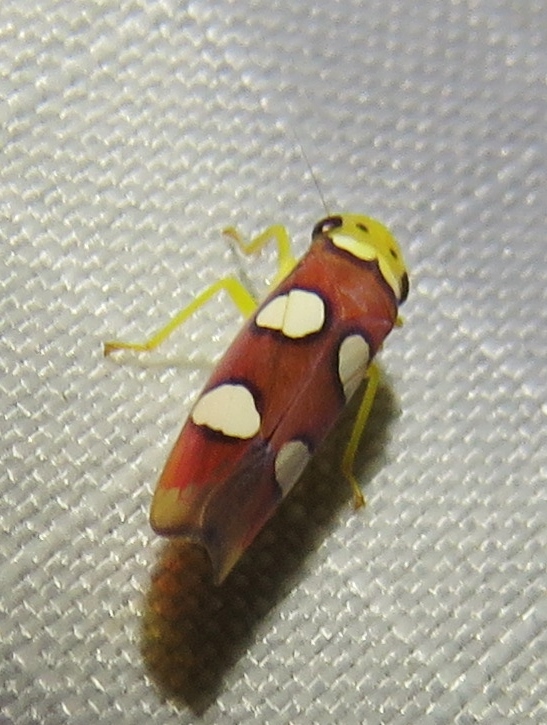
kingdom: Animalia
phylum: Arthropoda
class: Insecta
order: Hemiptera
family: Cicadellidae
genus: Erythrogonia
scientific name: Erythrogonia laudata
